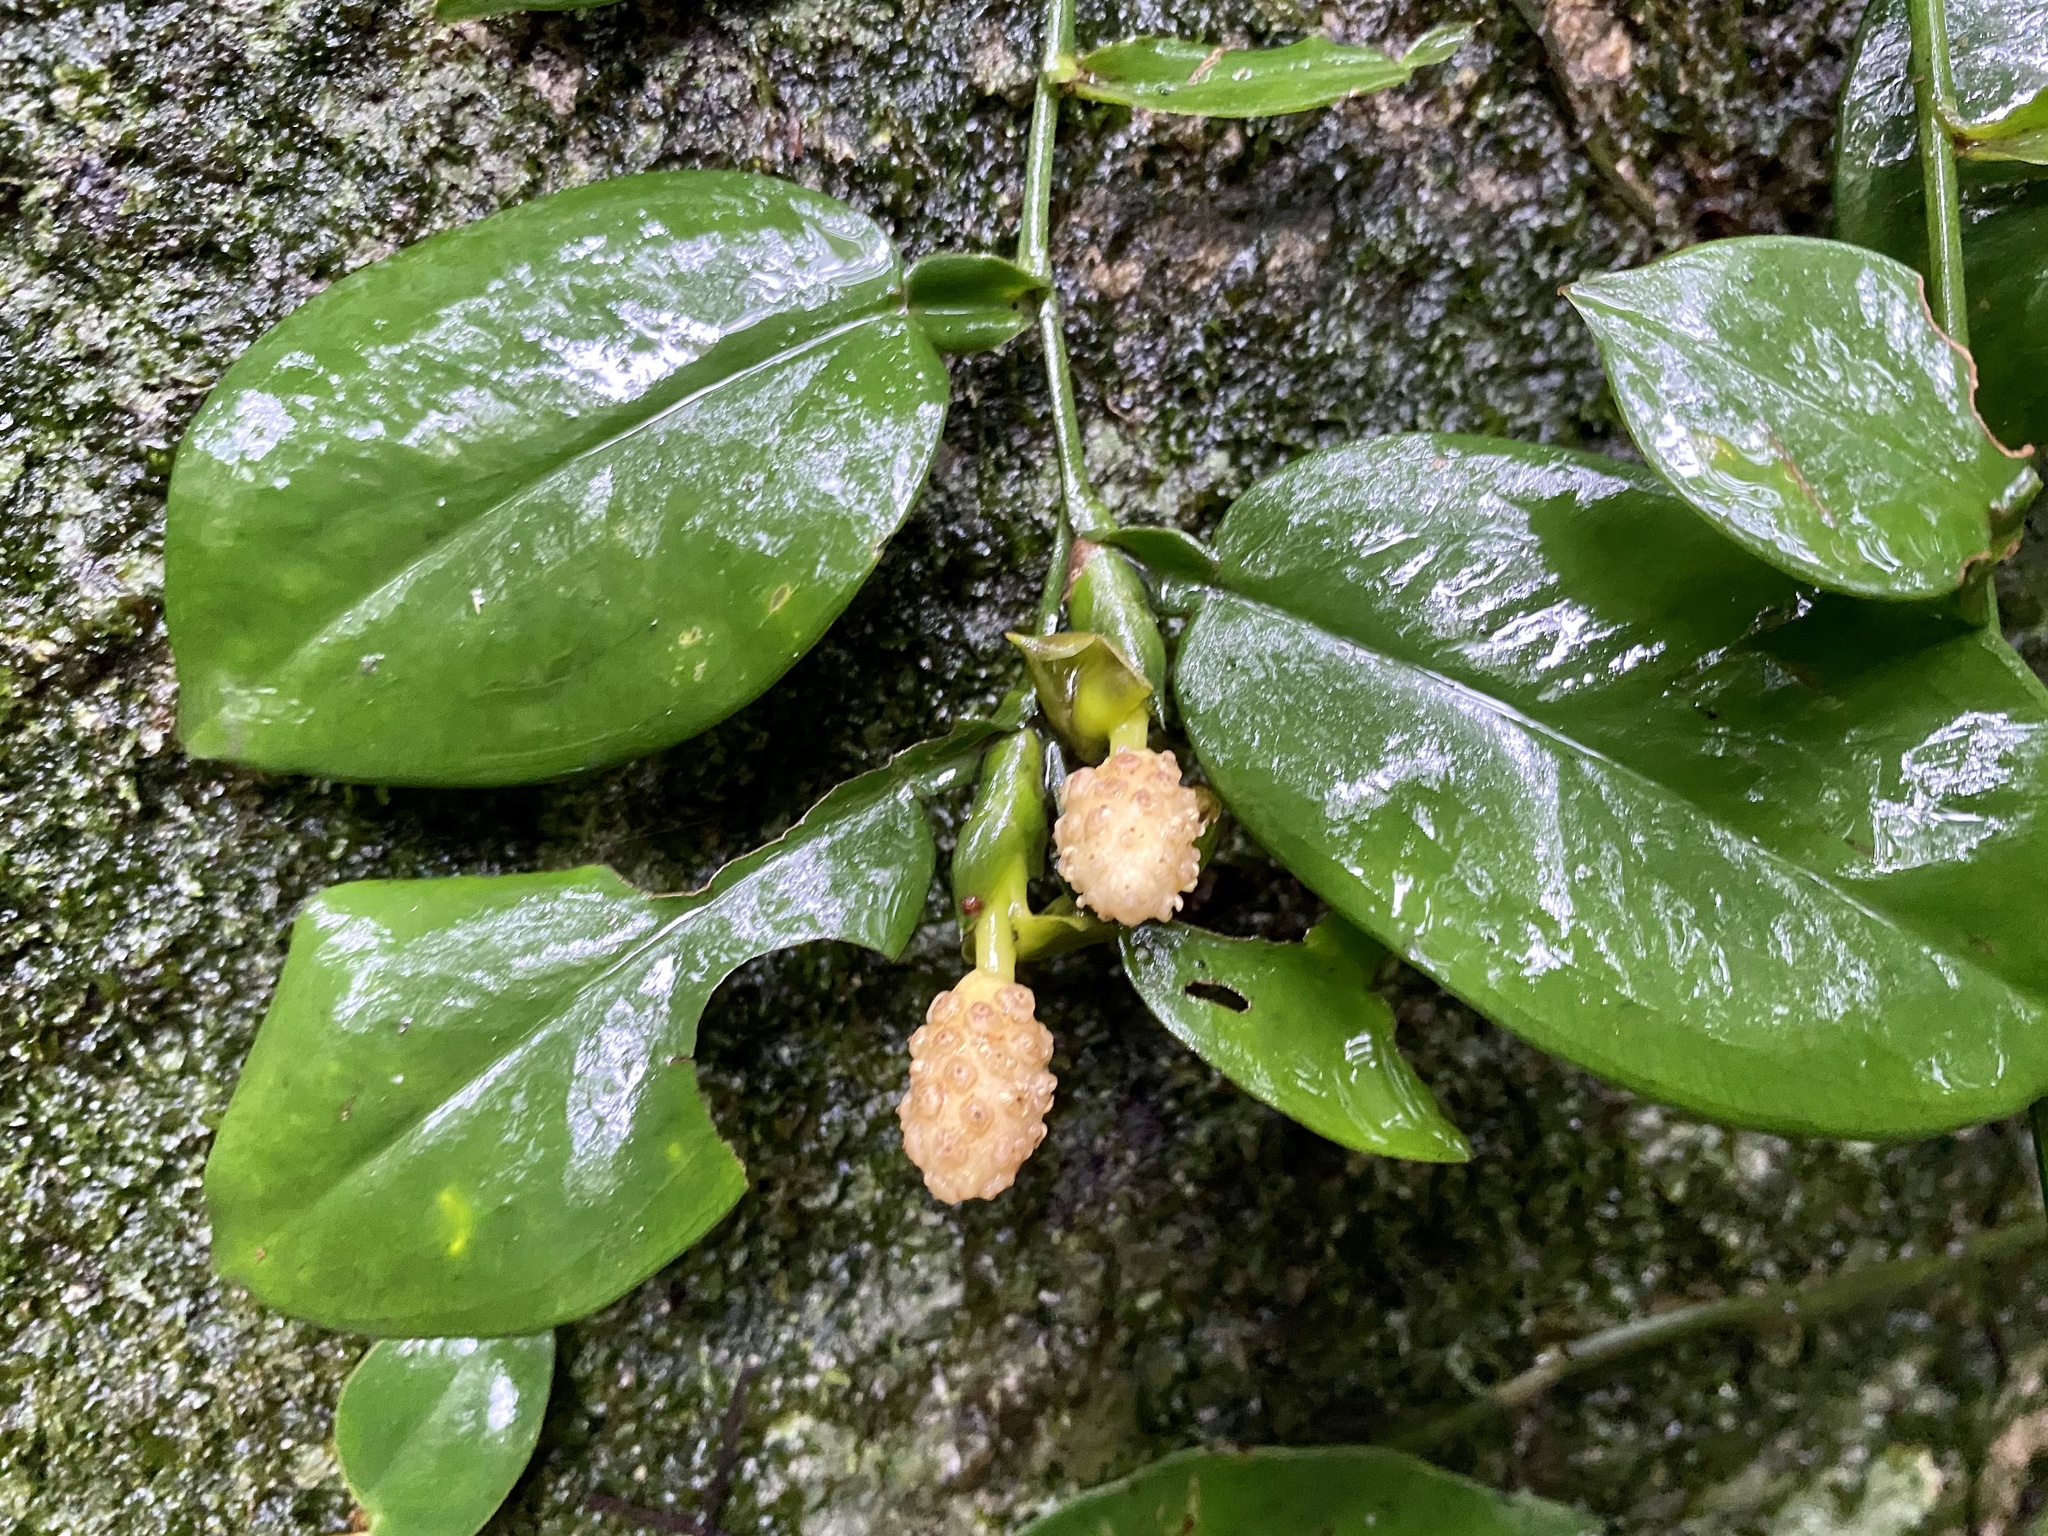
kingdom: Plantae
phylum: Tracheophyta
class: Liliopsida
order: Alismatales
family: Araceae
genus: Pothos
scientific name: Pothos chinensis
